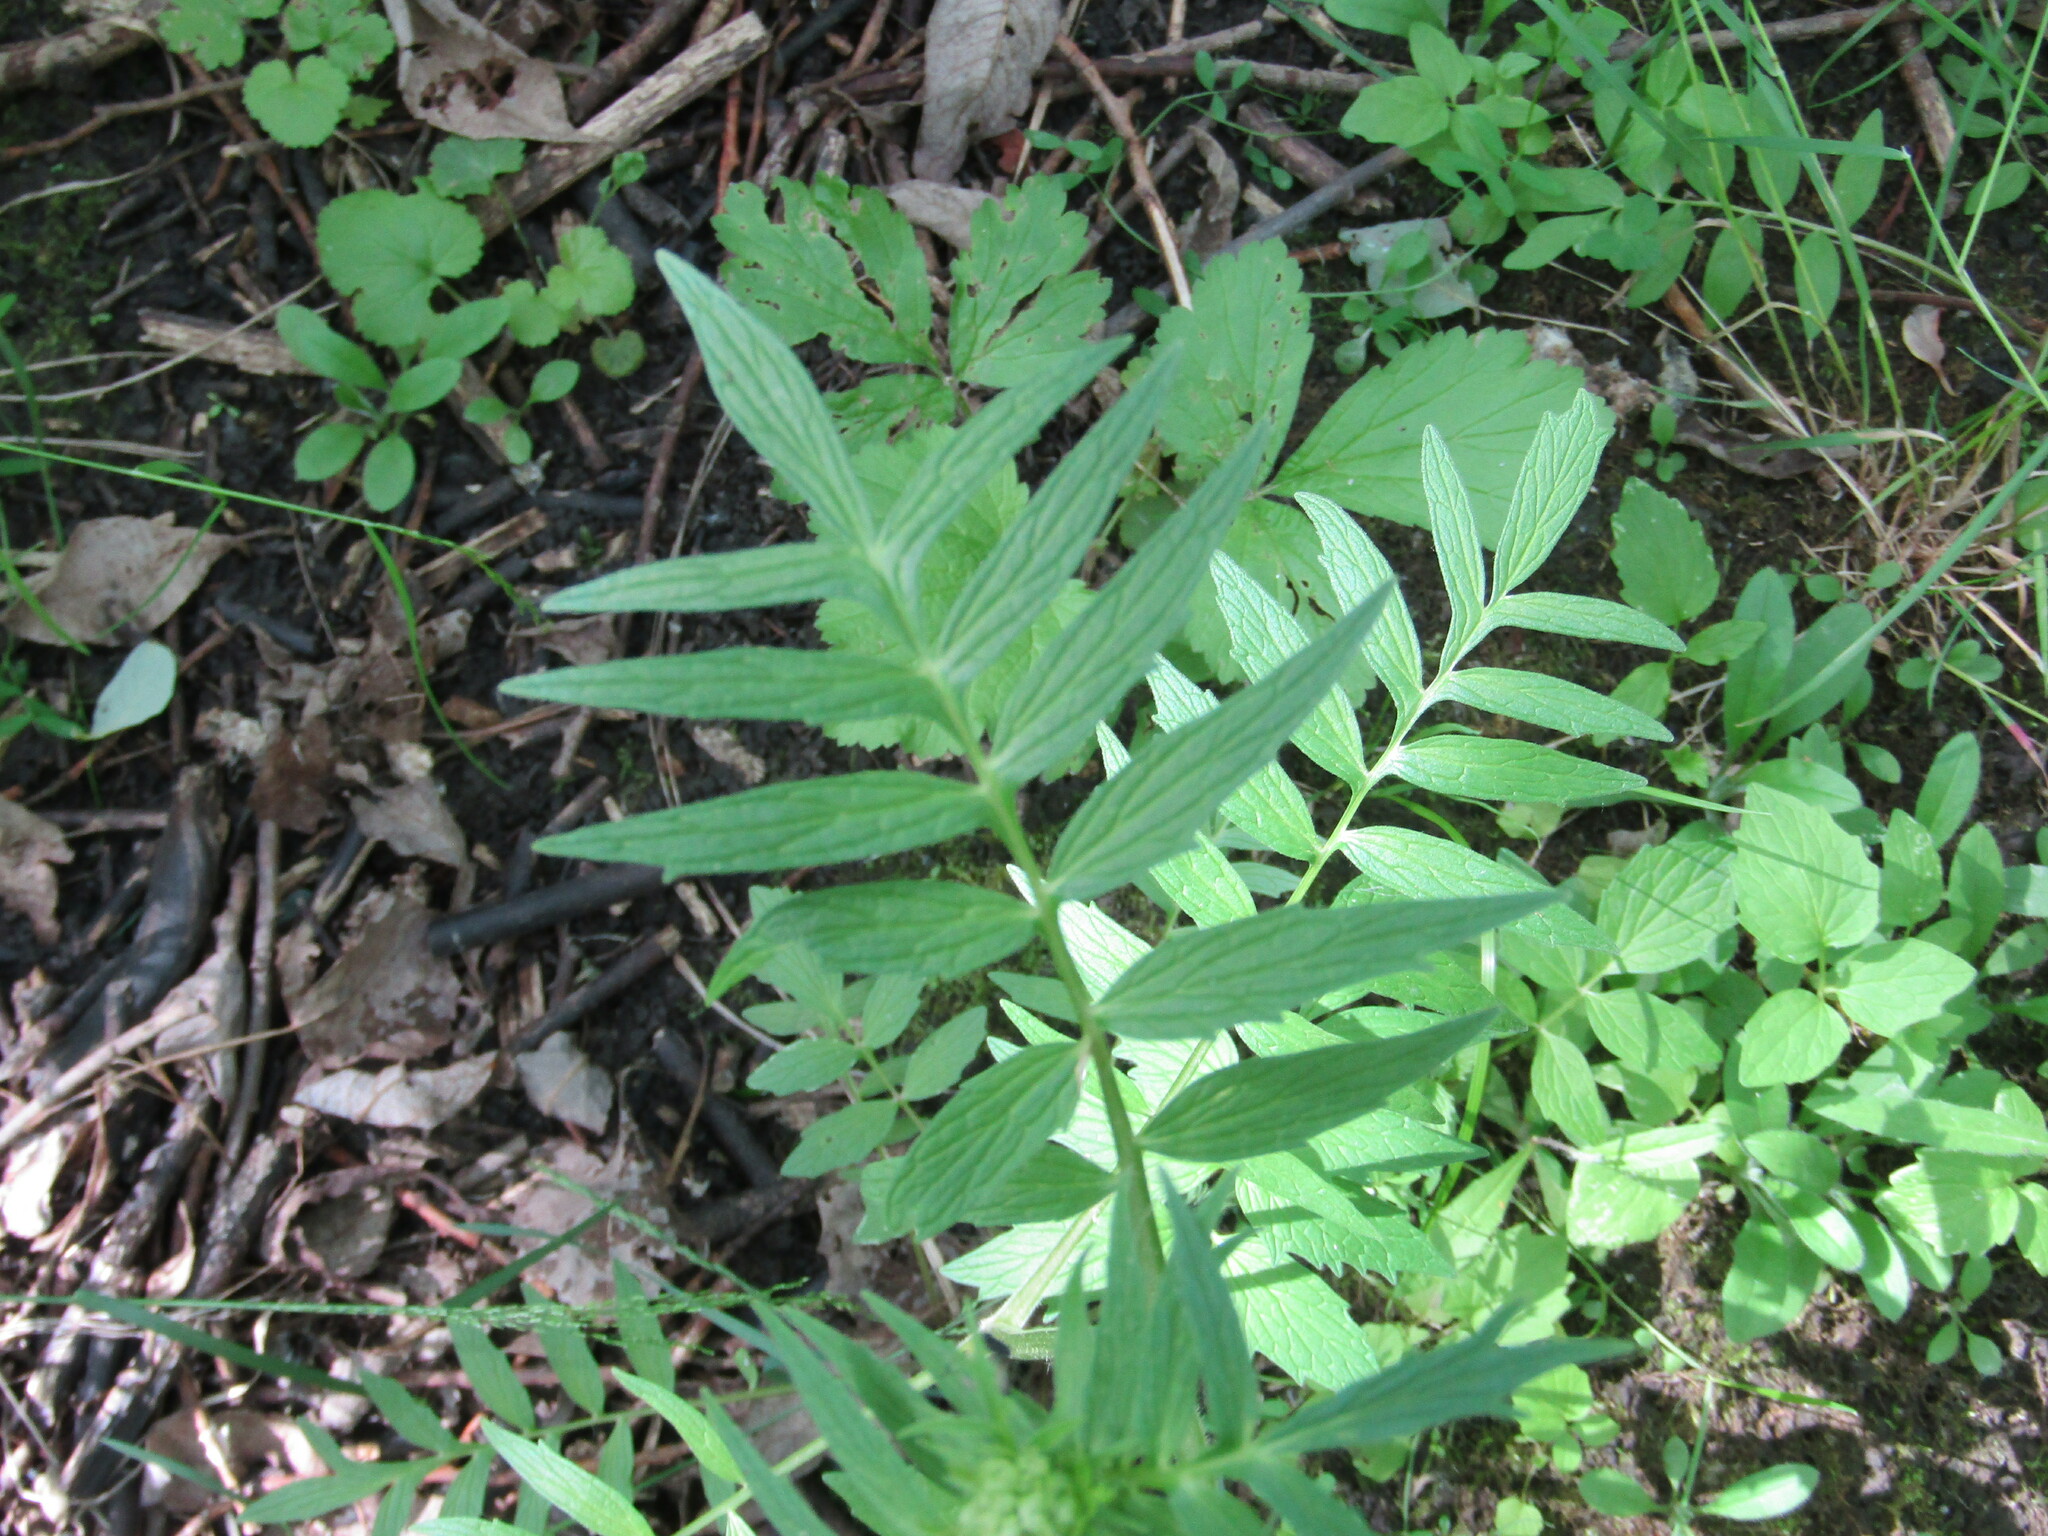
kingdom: Plantae
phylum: Tracheophyta
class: Magnoliopsida
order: Dipsacales
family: Caprifoliaceae
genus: Valeriana
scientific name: Valeriana officinalis
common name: Common valerian
